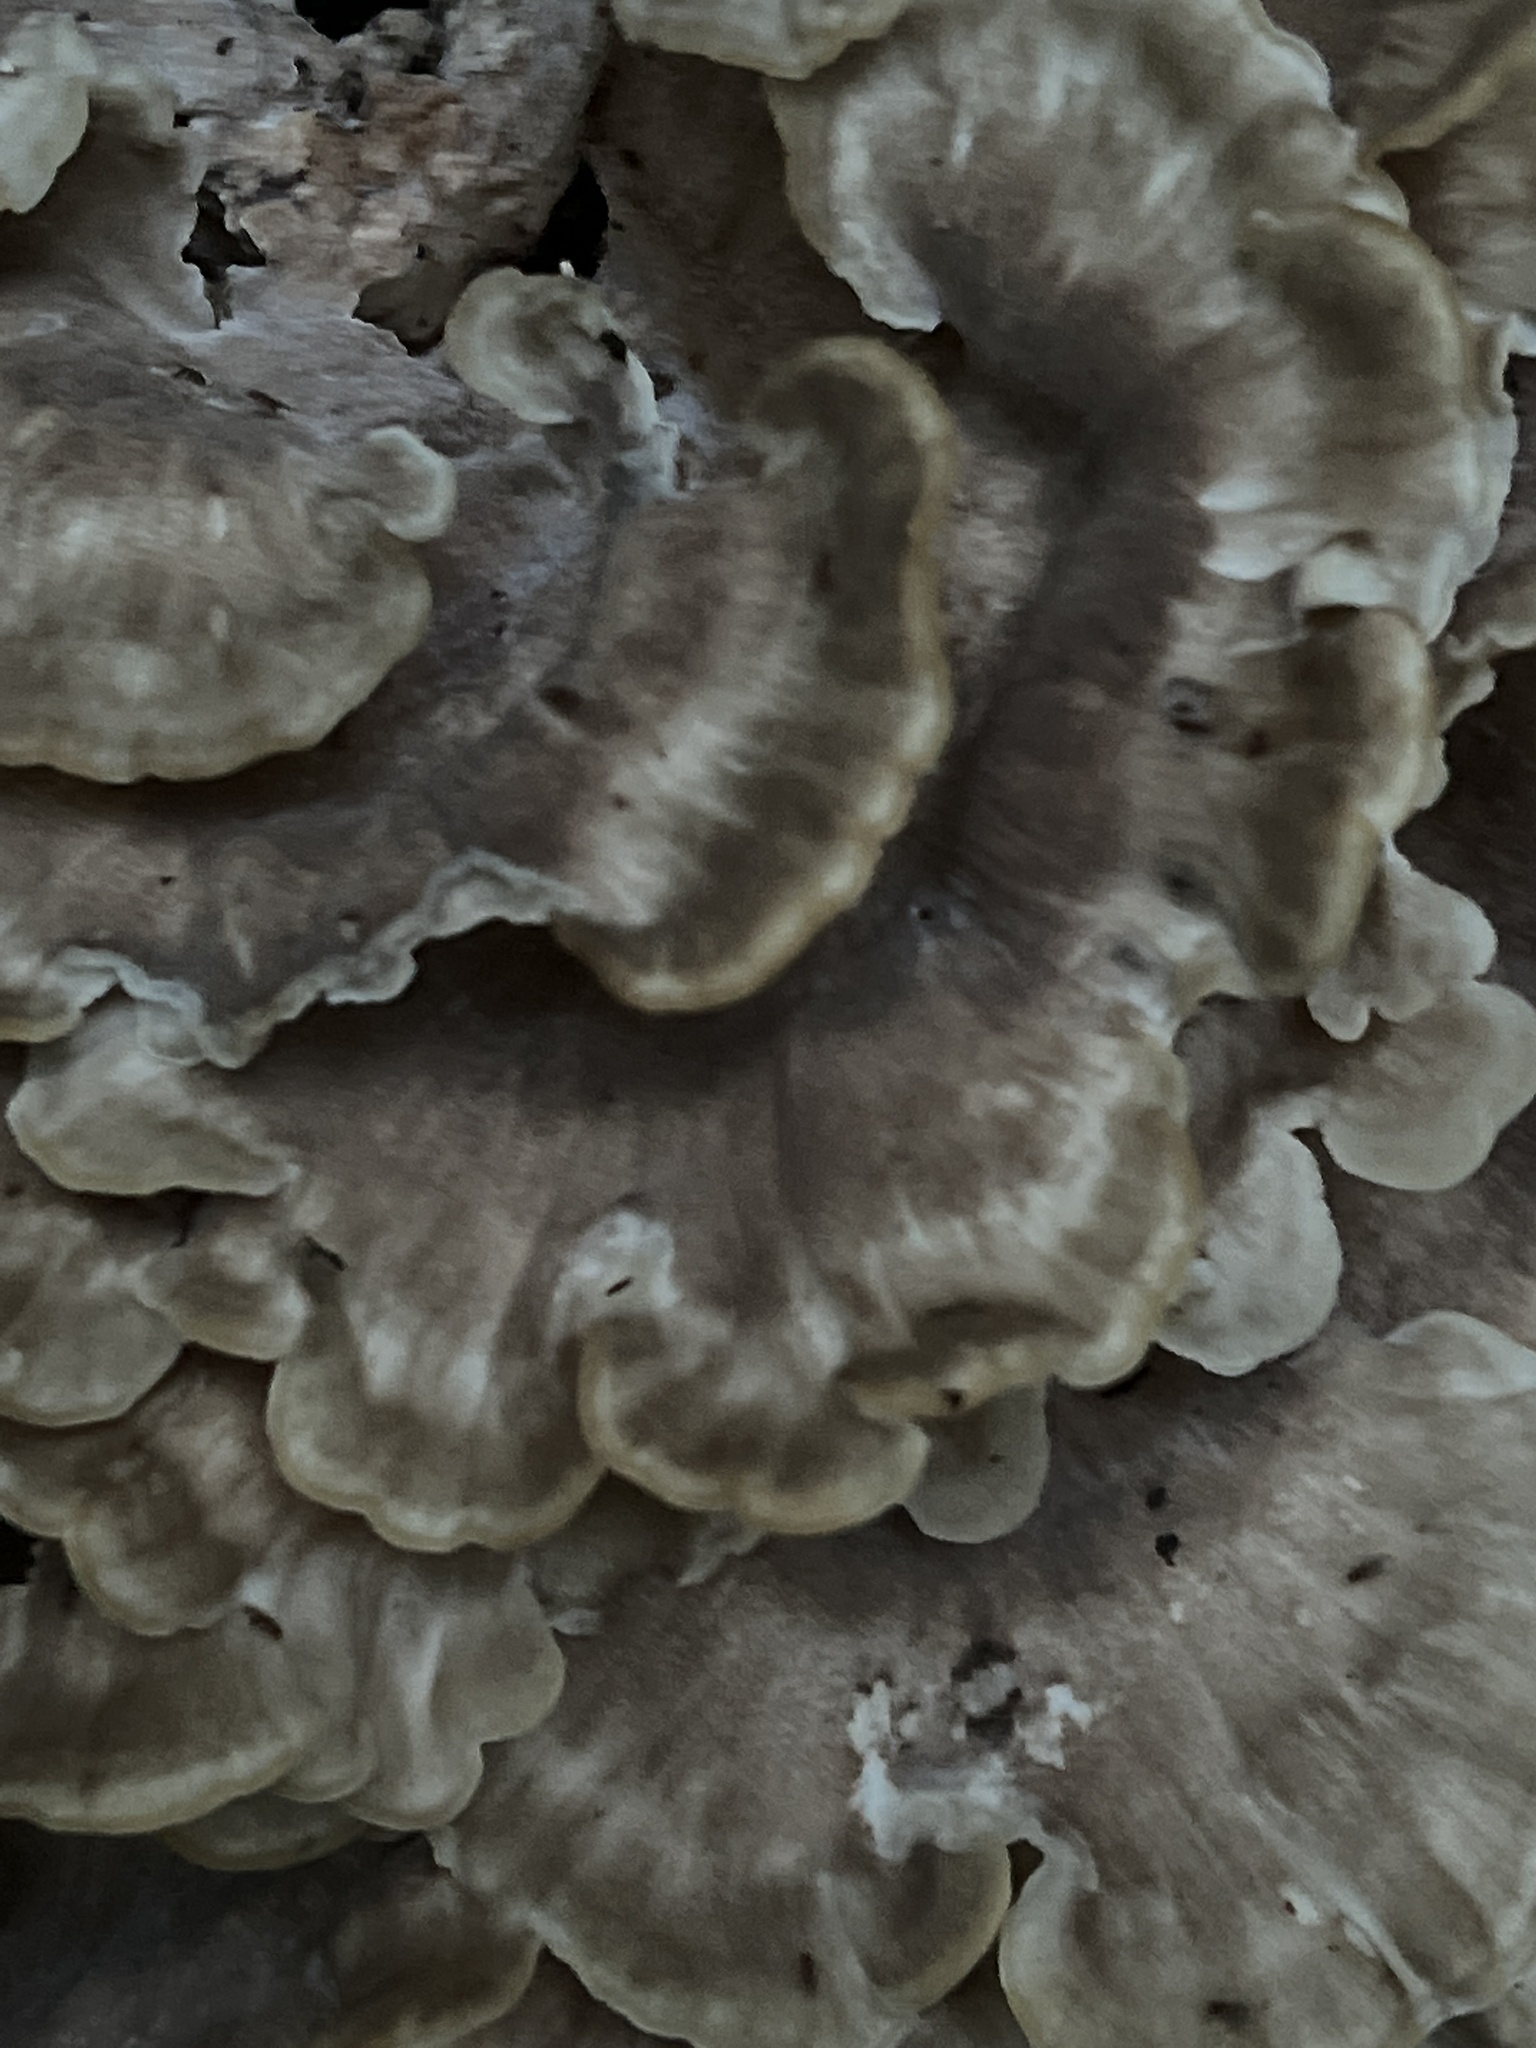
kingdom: Fungi
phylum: Basidiomycota
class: Agaricomycetes
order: Polyporales
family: Meripilaceae
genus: Meripilus
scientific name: Meripilus sumstinei
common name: Black-staining polypore
